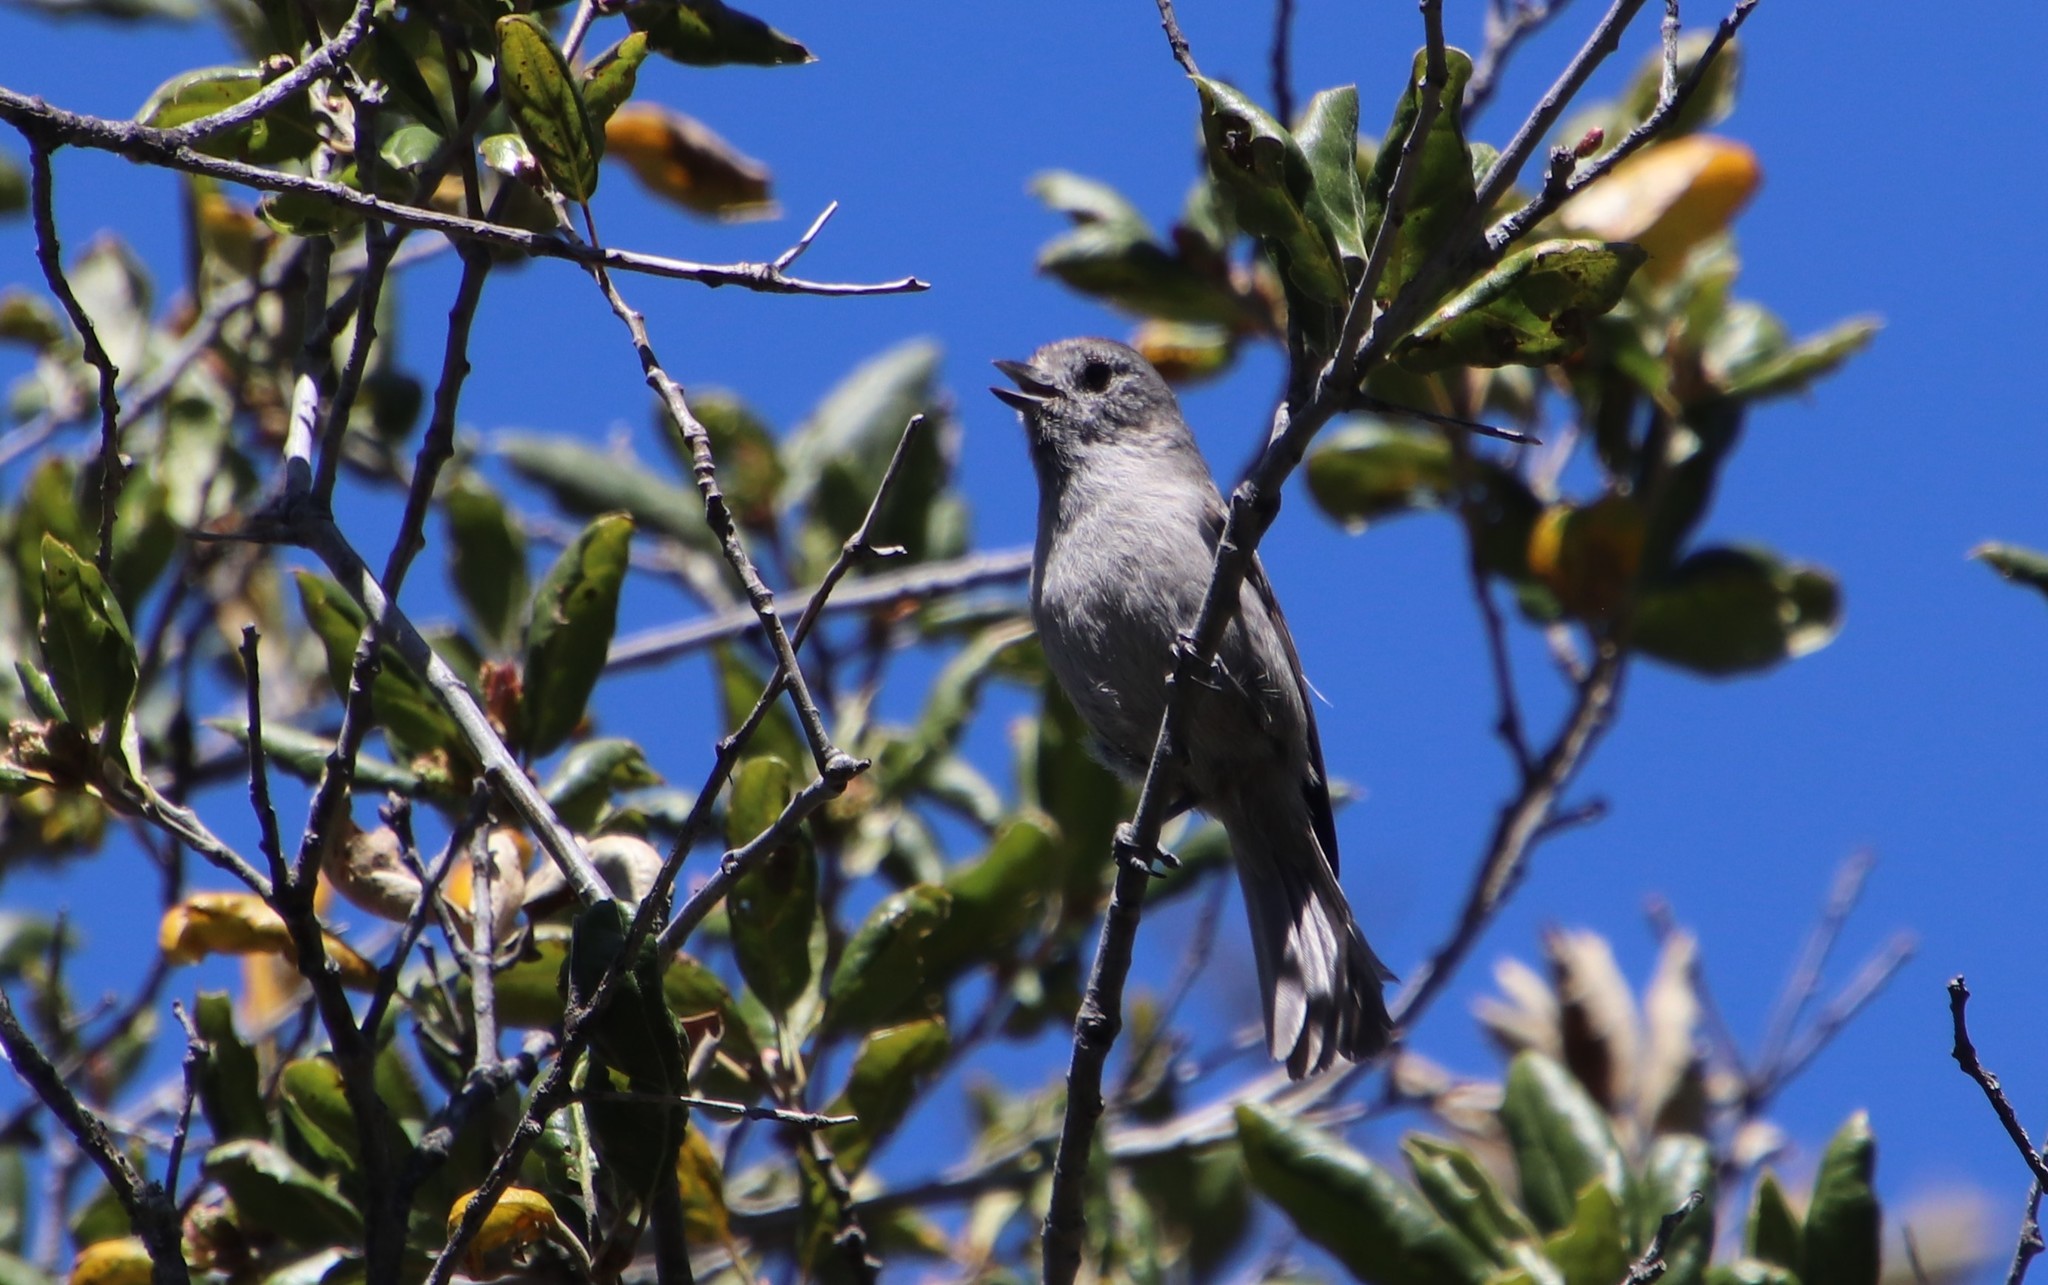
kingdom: Animalia
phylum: Chordata
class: Aves
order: Passeriformes
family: Paridae
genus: Baeolophus
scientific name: Baeolophus inornatus
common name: Oak titmouse
